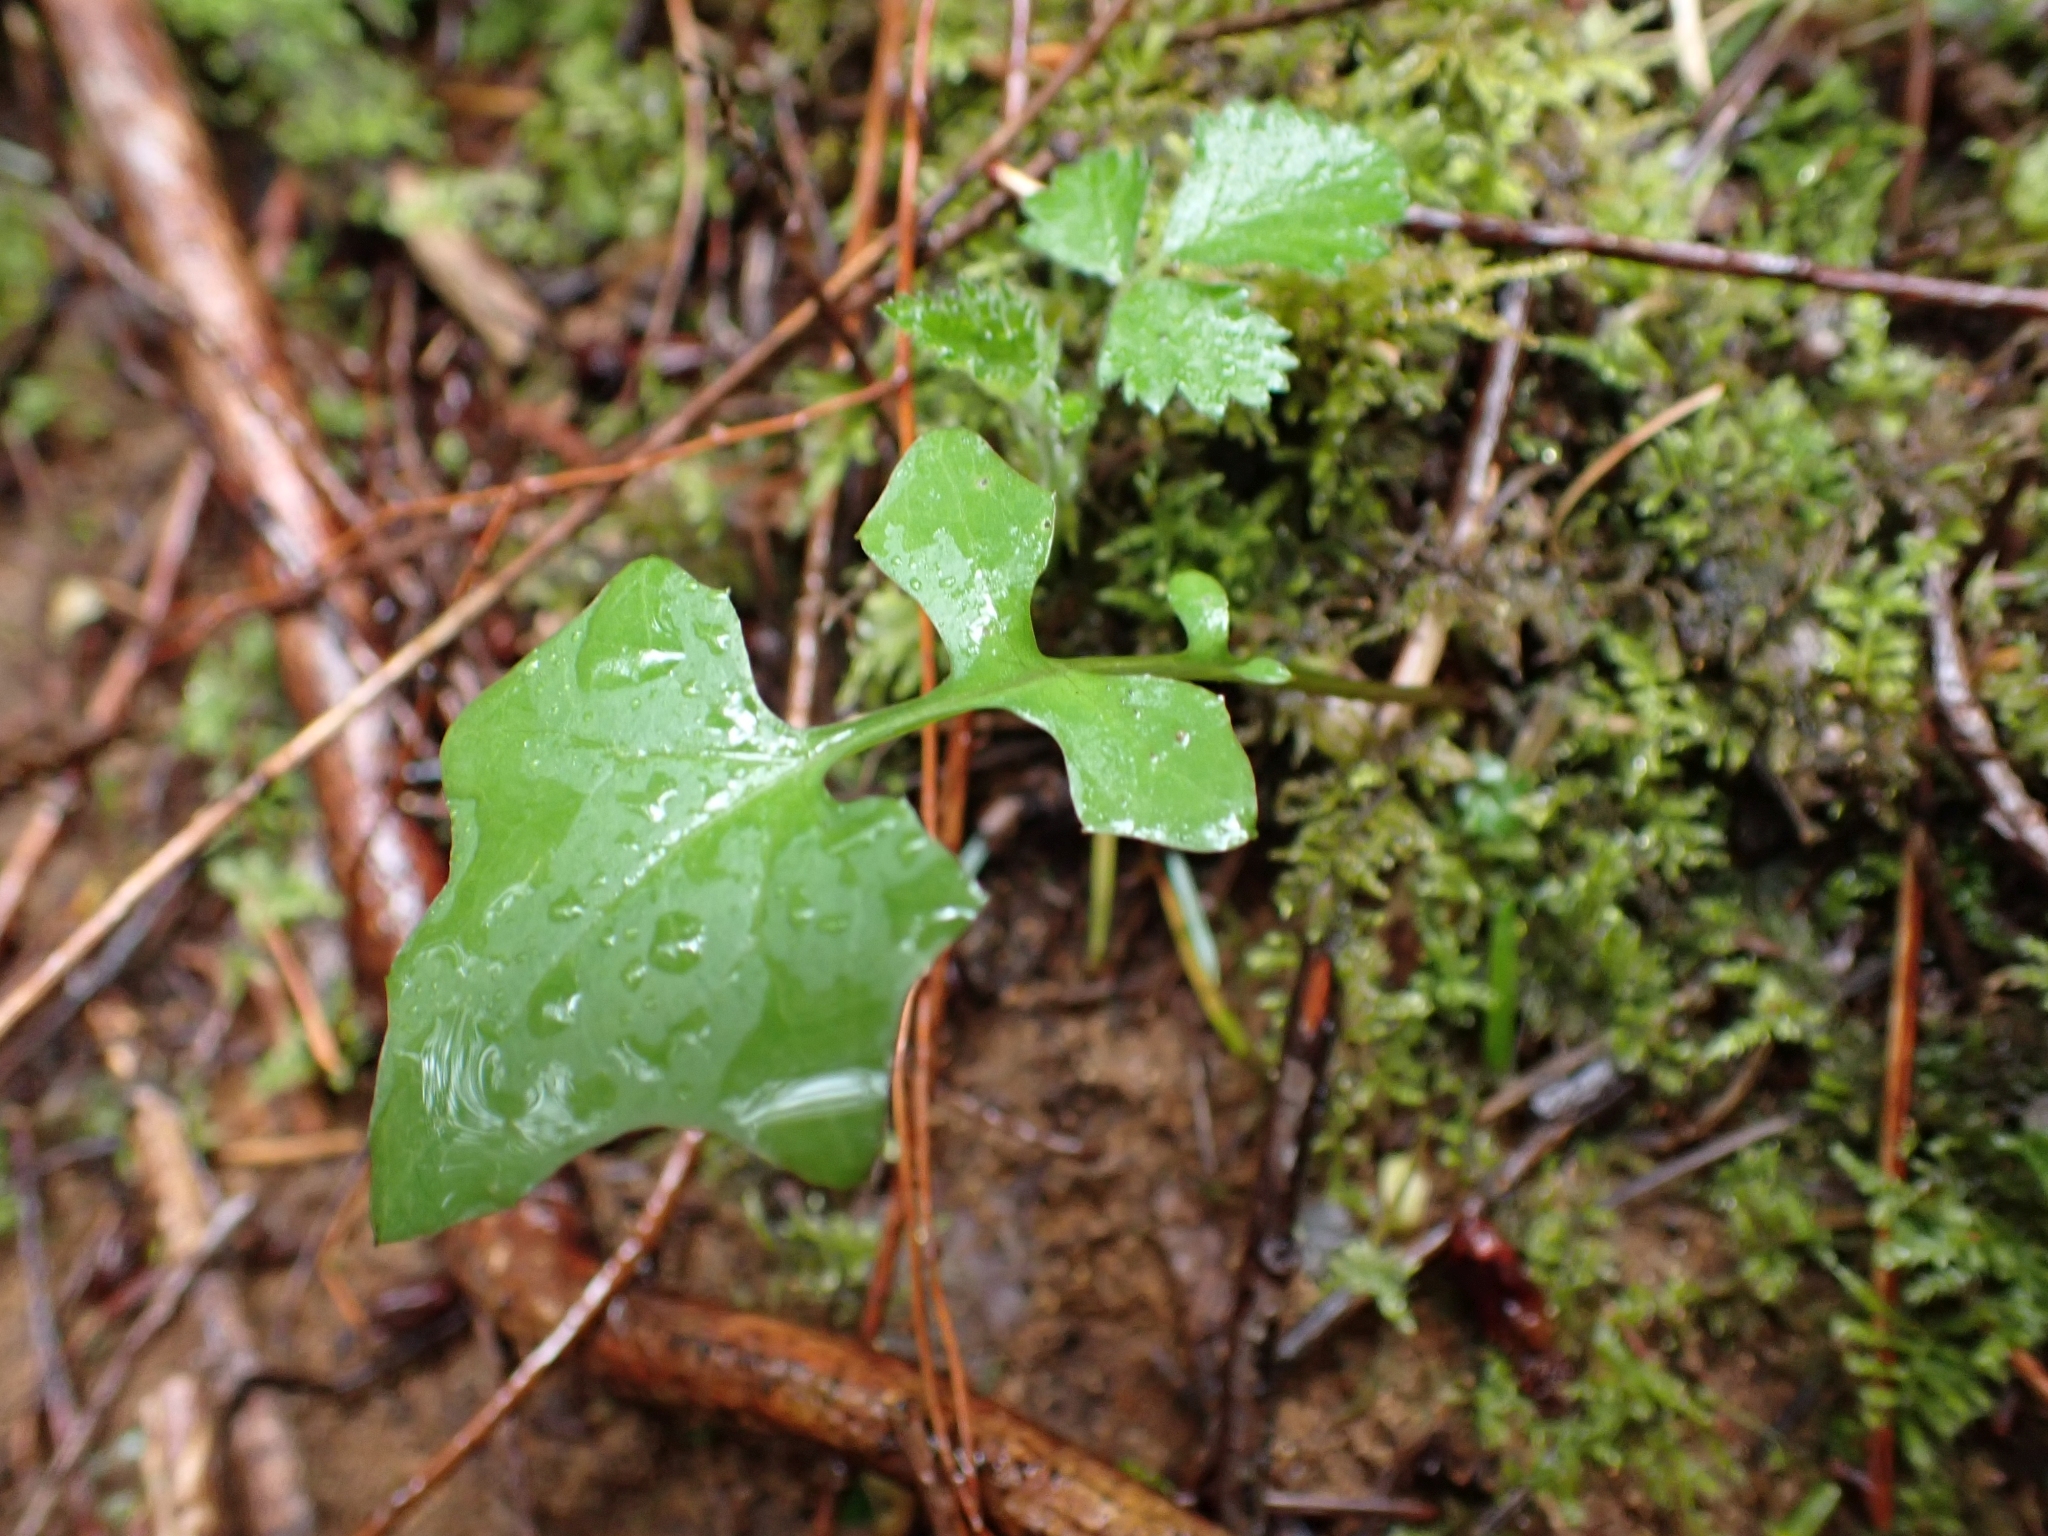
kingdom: Plantae
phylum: Tracheophyta
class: Magnoliopsida
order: Asterales
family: Asteraceae
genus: Mycelis
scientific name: Mycelis muralis
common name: Wall lettuce
